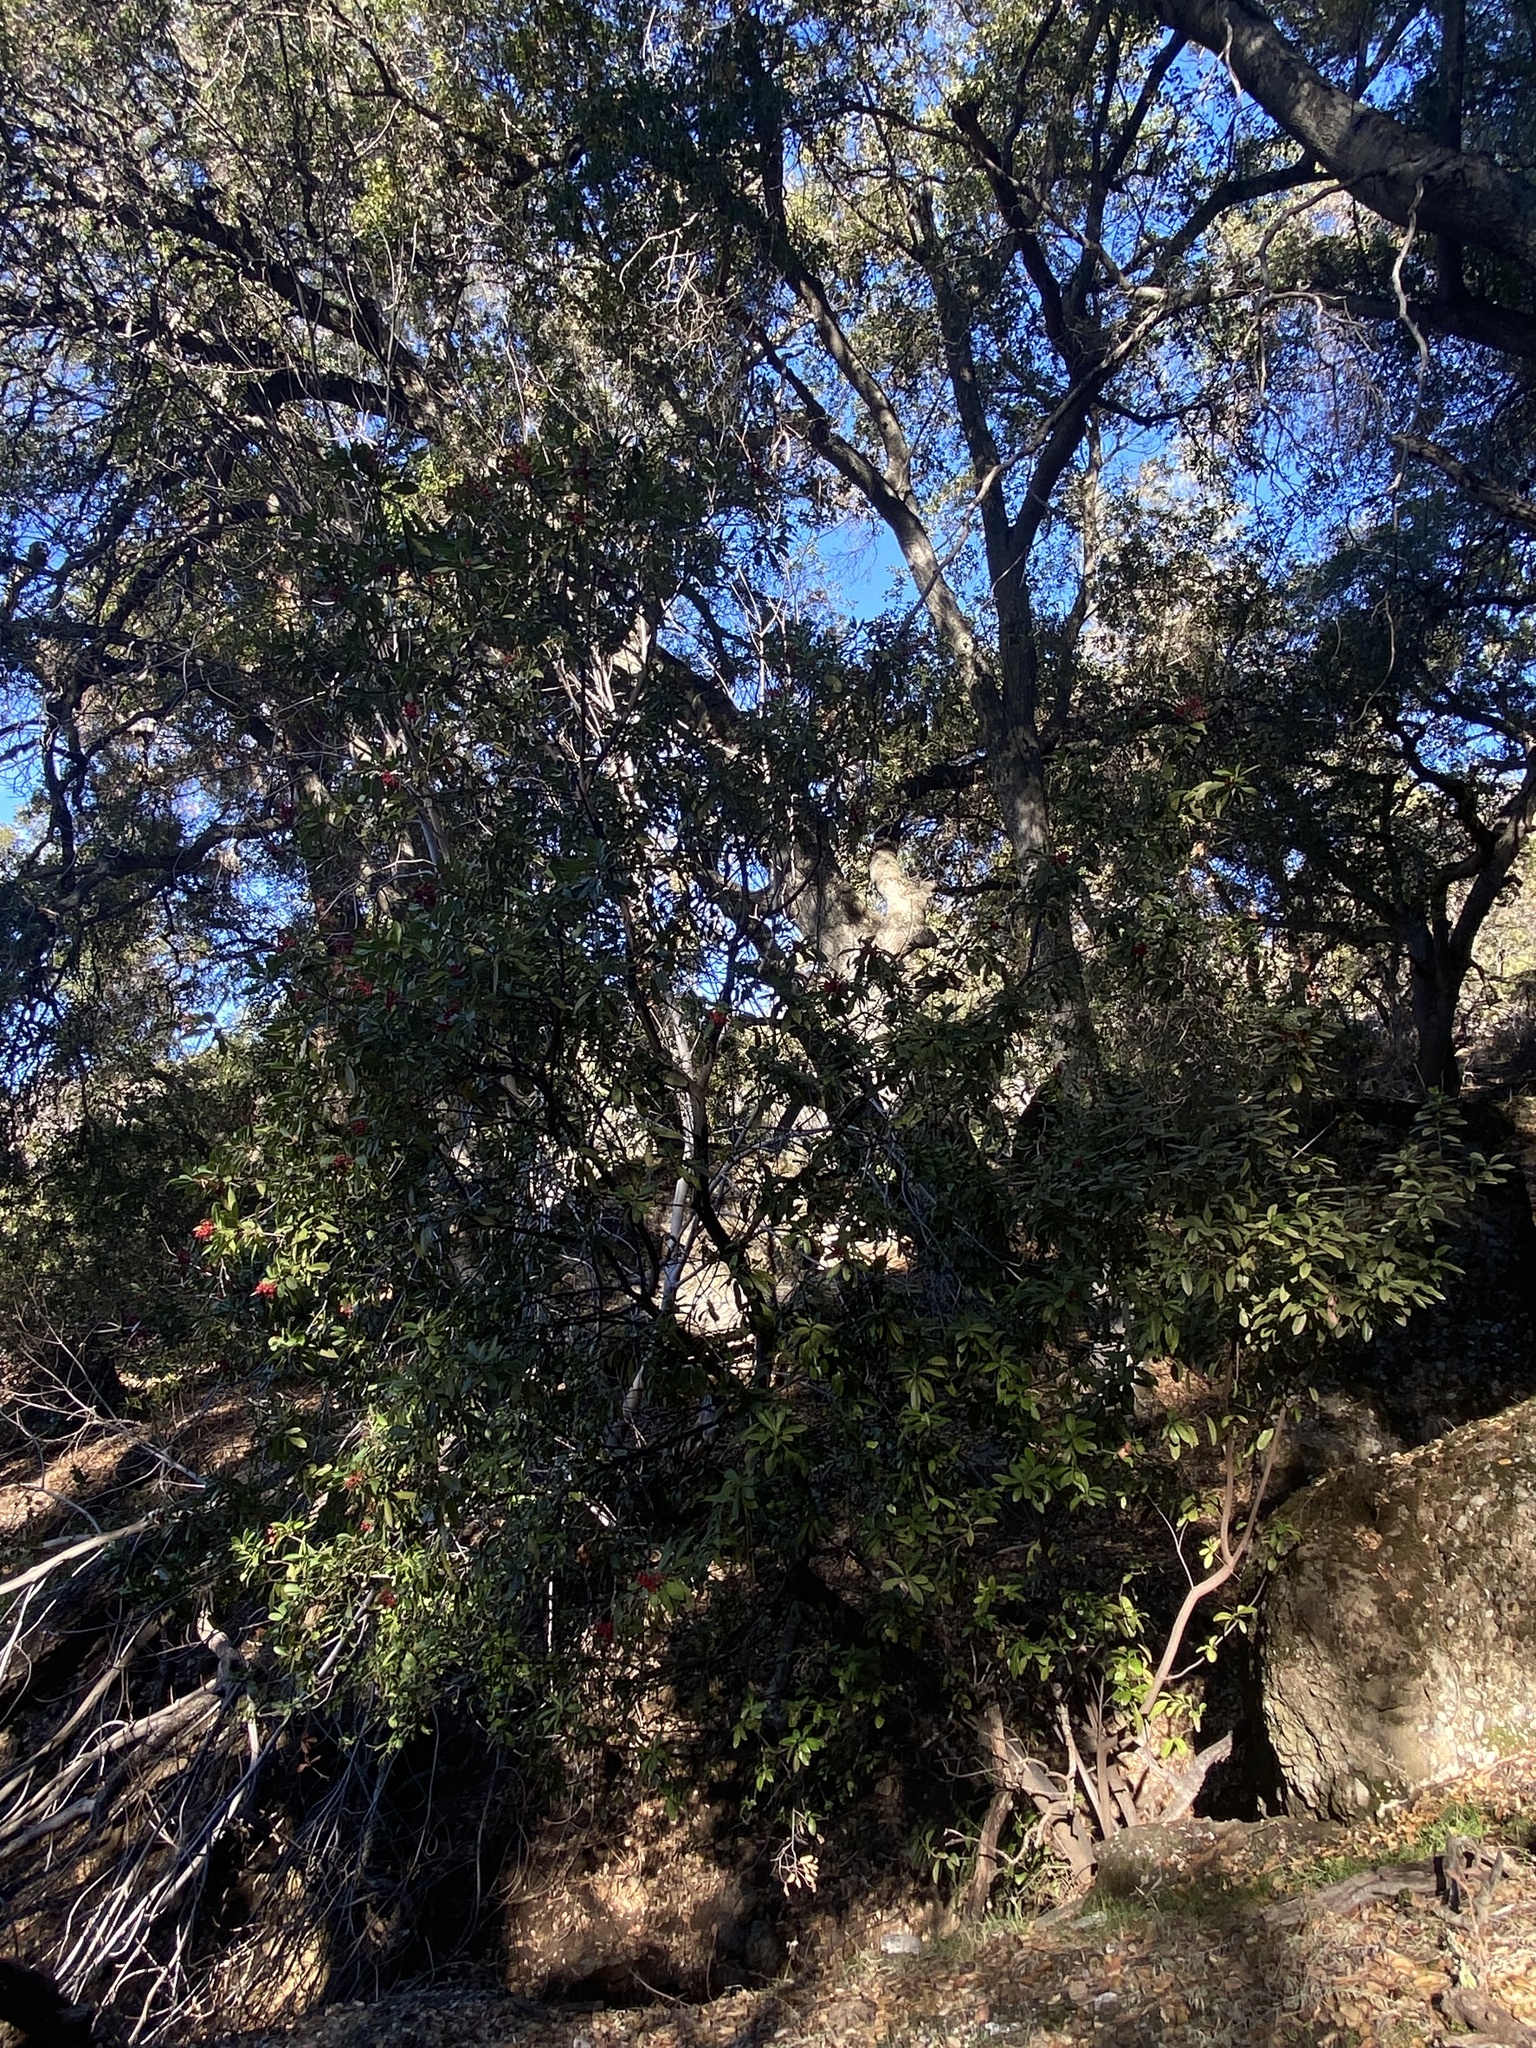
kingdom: Plantae
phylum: Tracheophyta
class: Magnoliopsida
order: Rosales
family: Rosaceae
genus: Heteromeles
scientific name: Heteromeles arbutifolia
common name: California-holly
